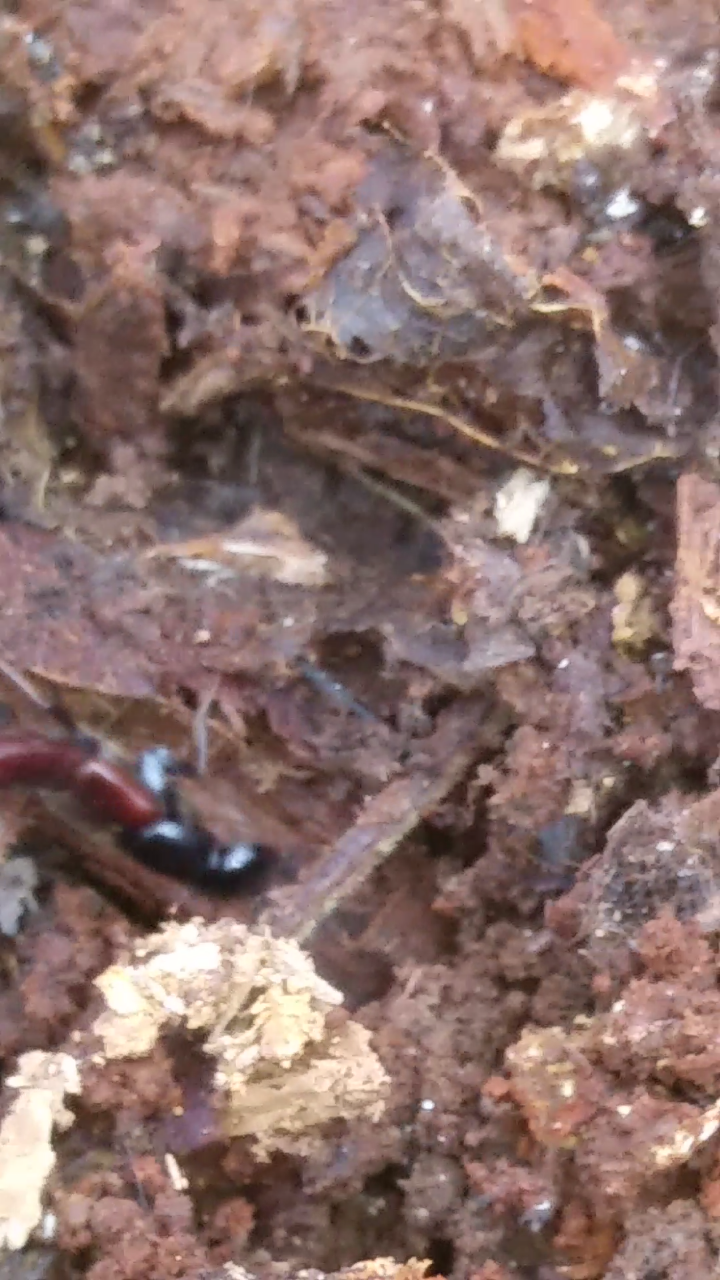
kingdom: Animalia
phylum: Arthropoda
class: Insecta
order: Coleoptera
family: Staphylinidae
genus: Hesperus
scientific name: Hesperus baltimorensis
